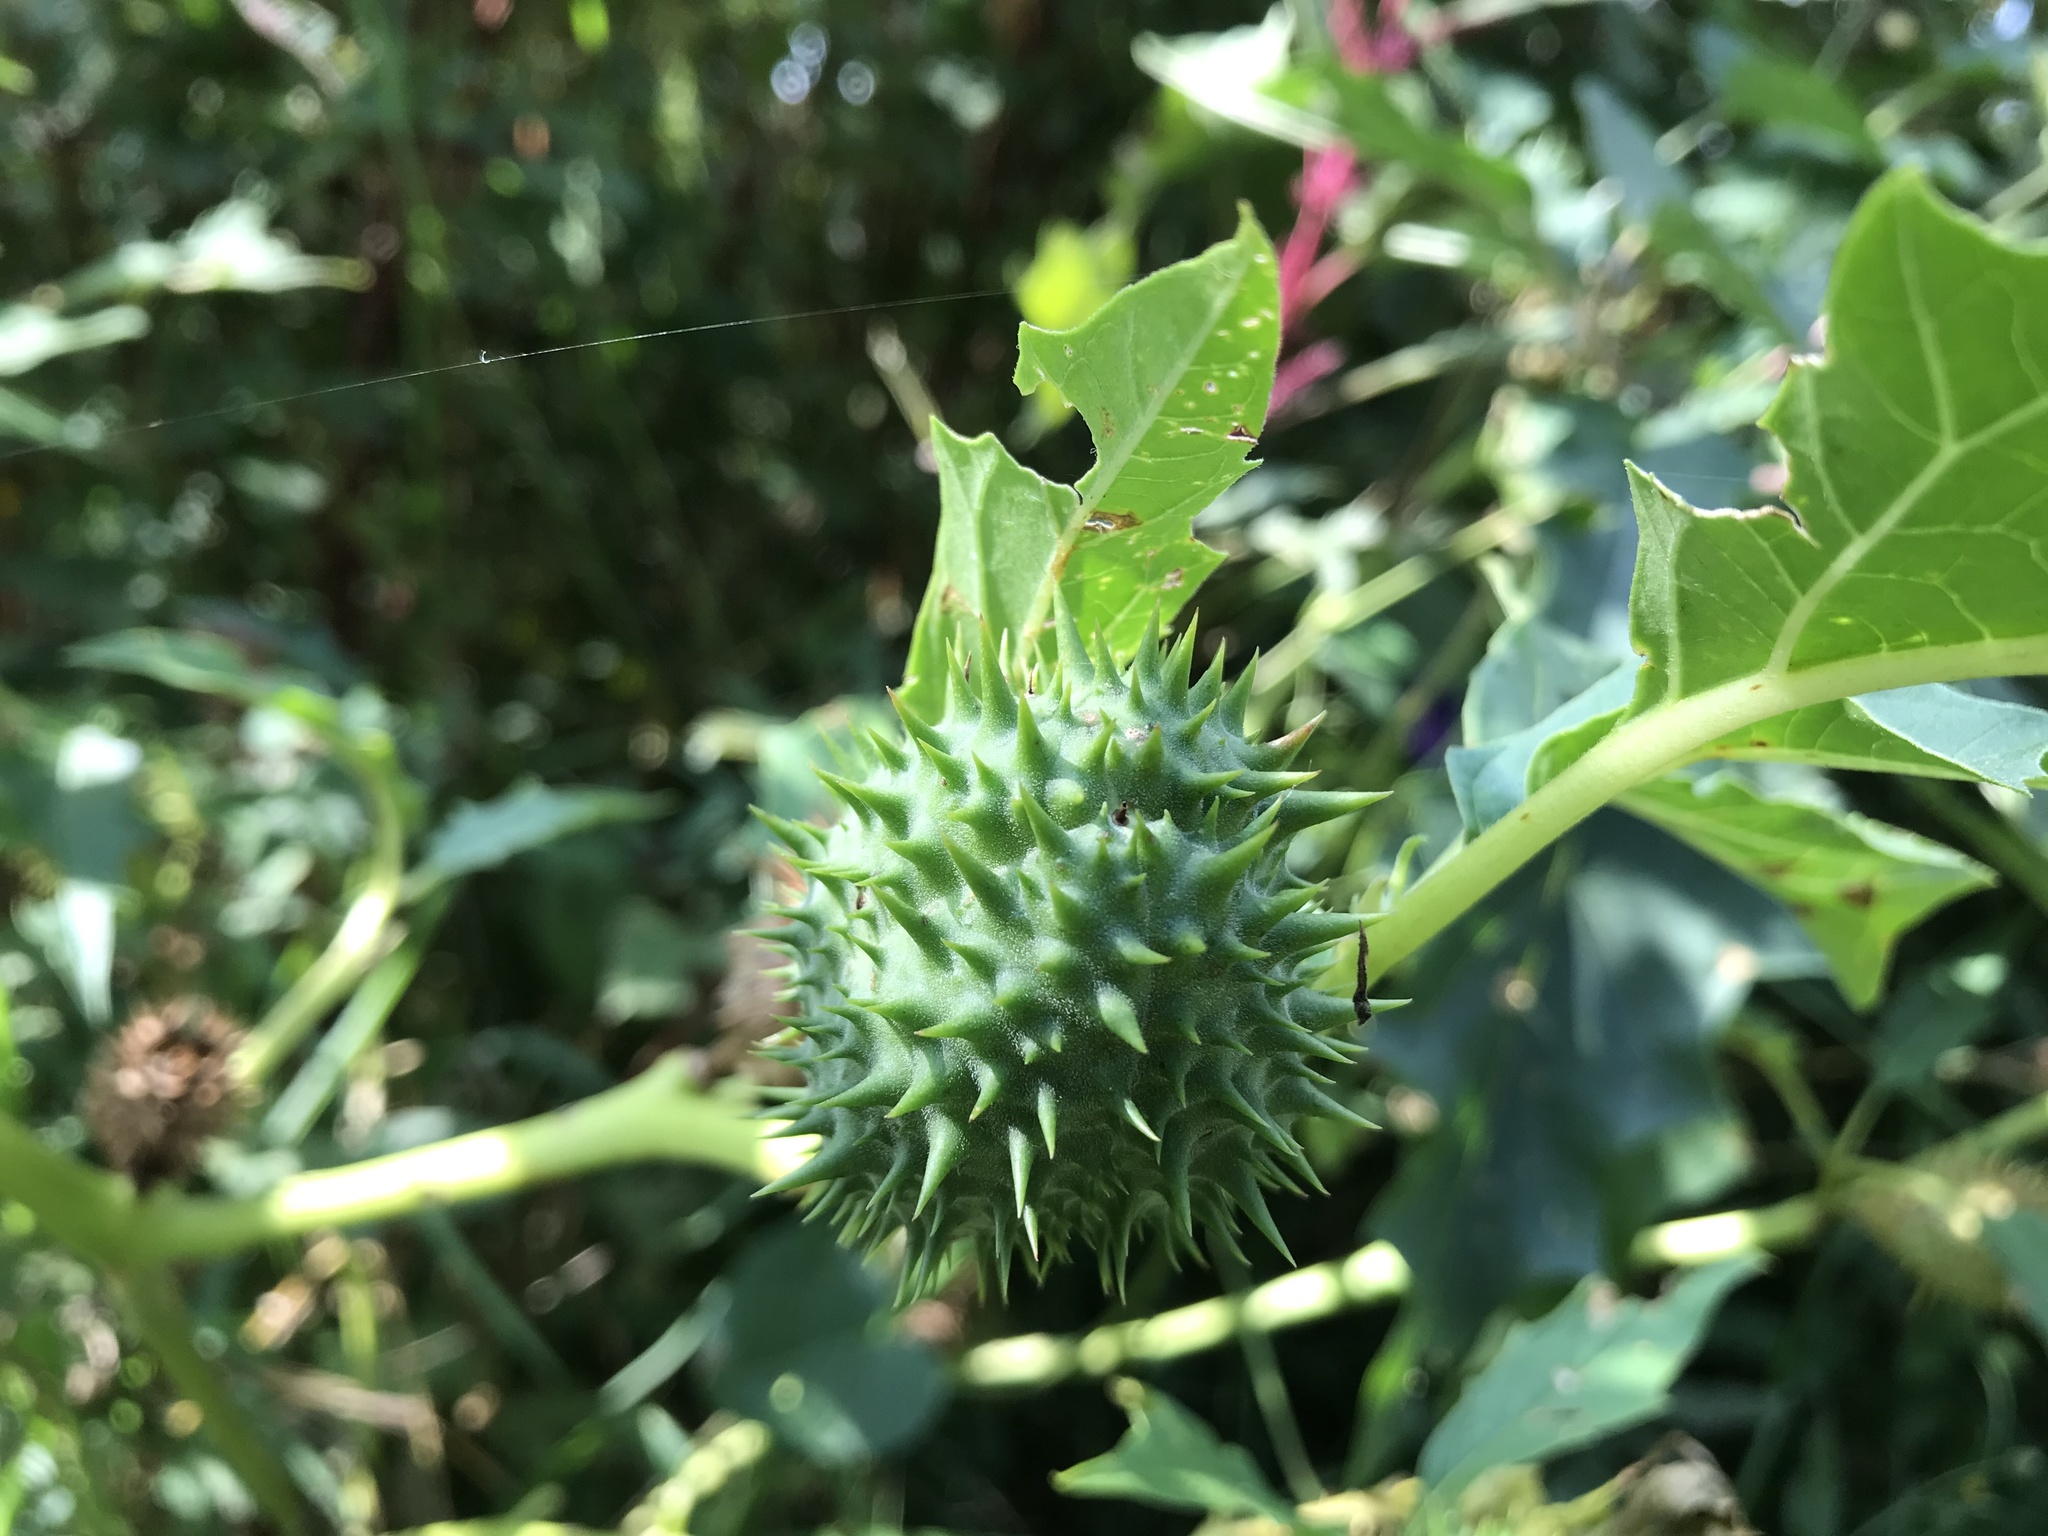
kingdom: Plantae
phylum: Tracheophyta
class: Magnoliopsida
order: Solanales
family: Solanaceae
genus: Datura
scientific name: Datura stramonium
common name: Thorn-apple
